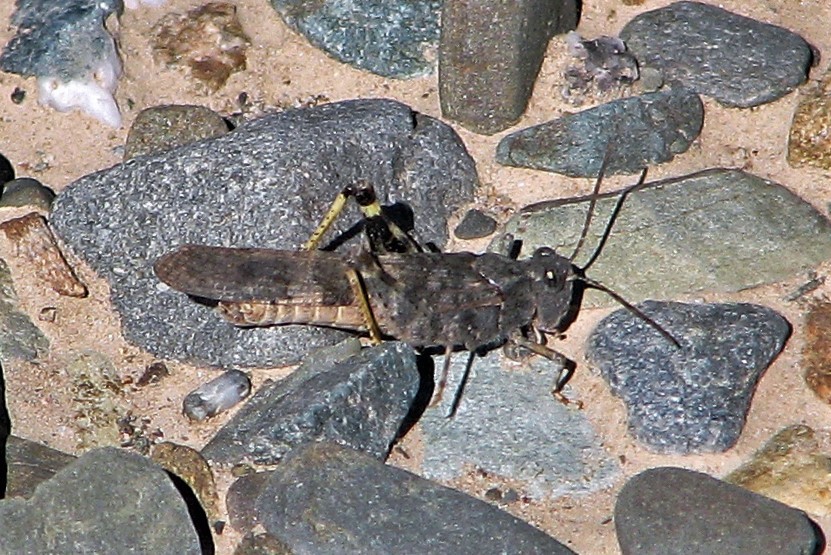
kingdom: Animalia
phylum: Arthropoda
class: Insecta
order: Orthoptera
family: Acrididae
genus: Trimerotropis
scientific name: Trimerotropis pallidipennis
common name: Pallid-winged grasshopper
